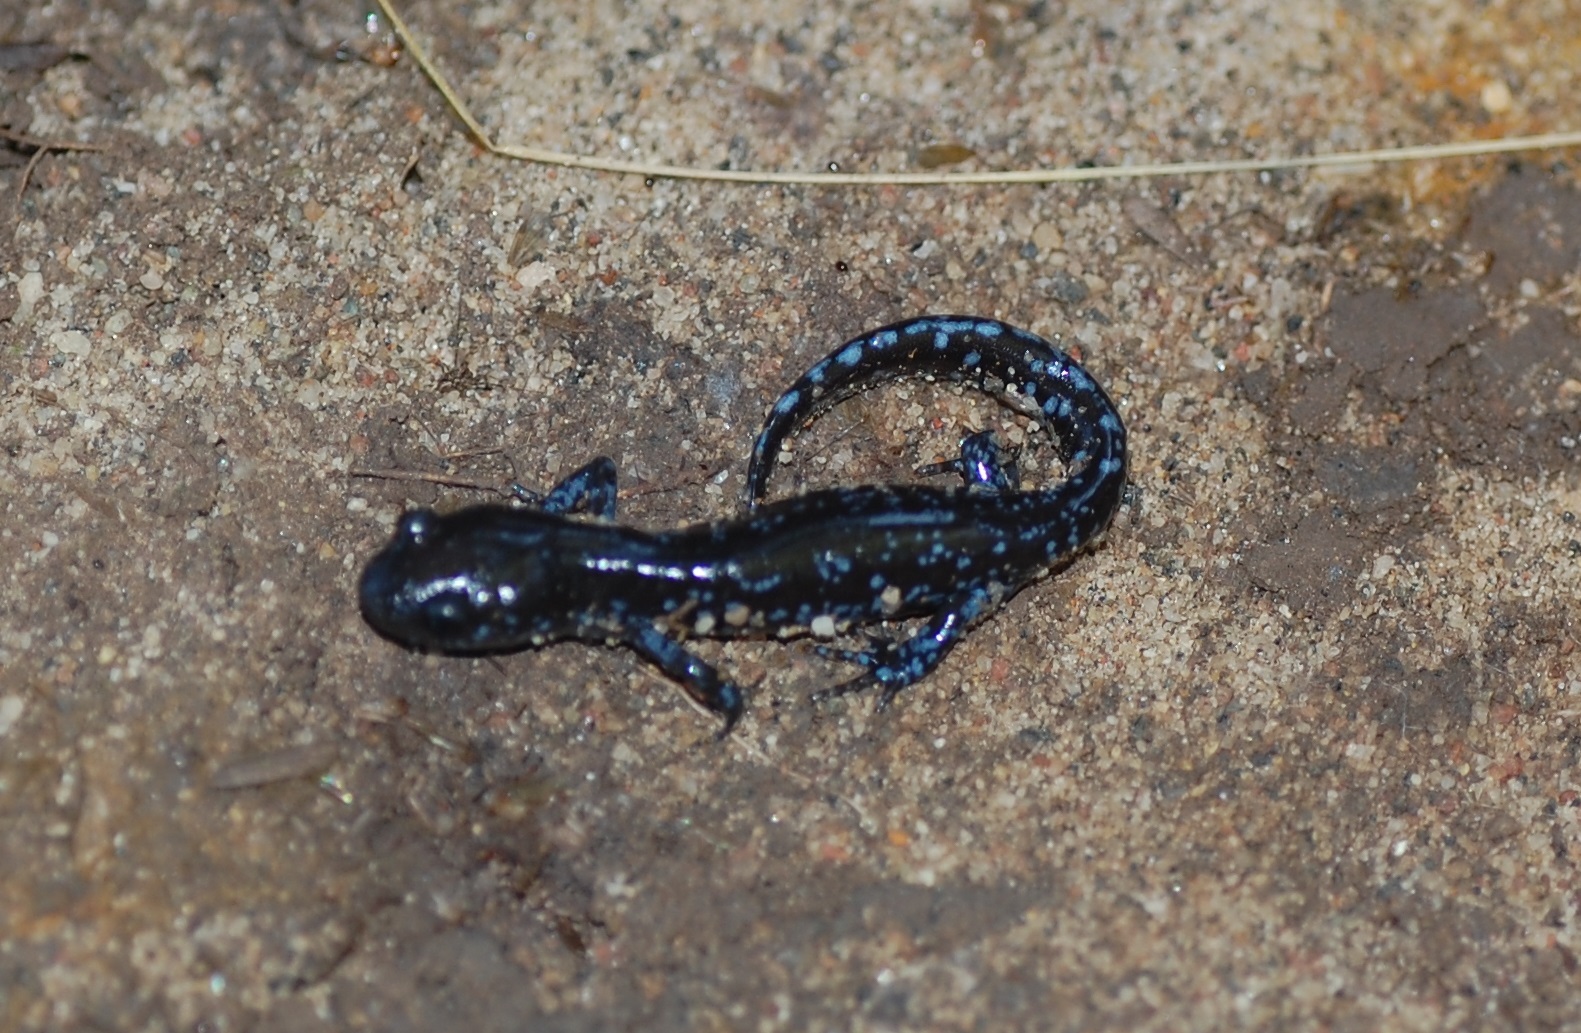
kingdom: Animalia
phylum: Chordata
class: Amphibia
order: Caudata
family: Ambystomatidae
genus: Ambystoma
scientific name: Ambystoma laterale
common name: Blue-spotted salamander
